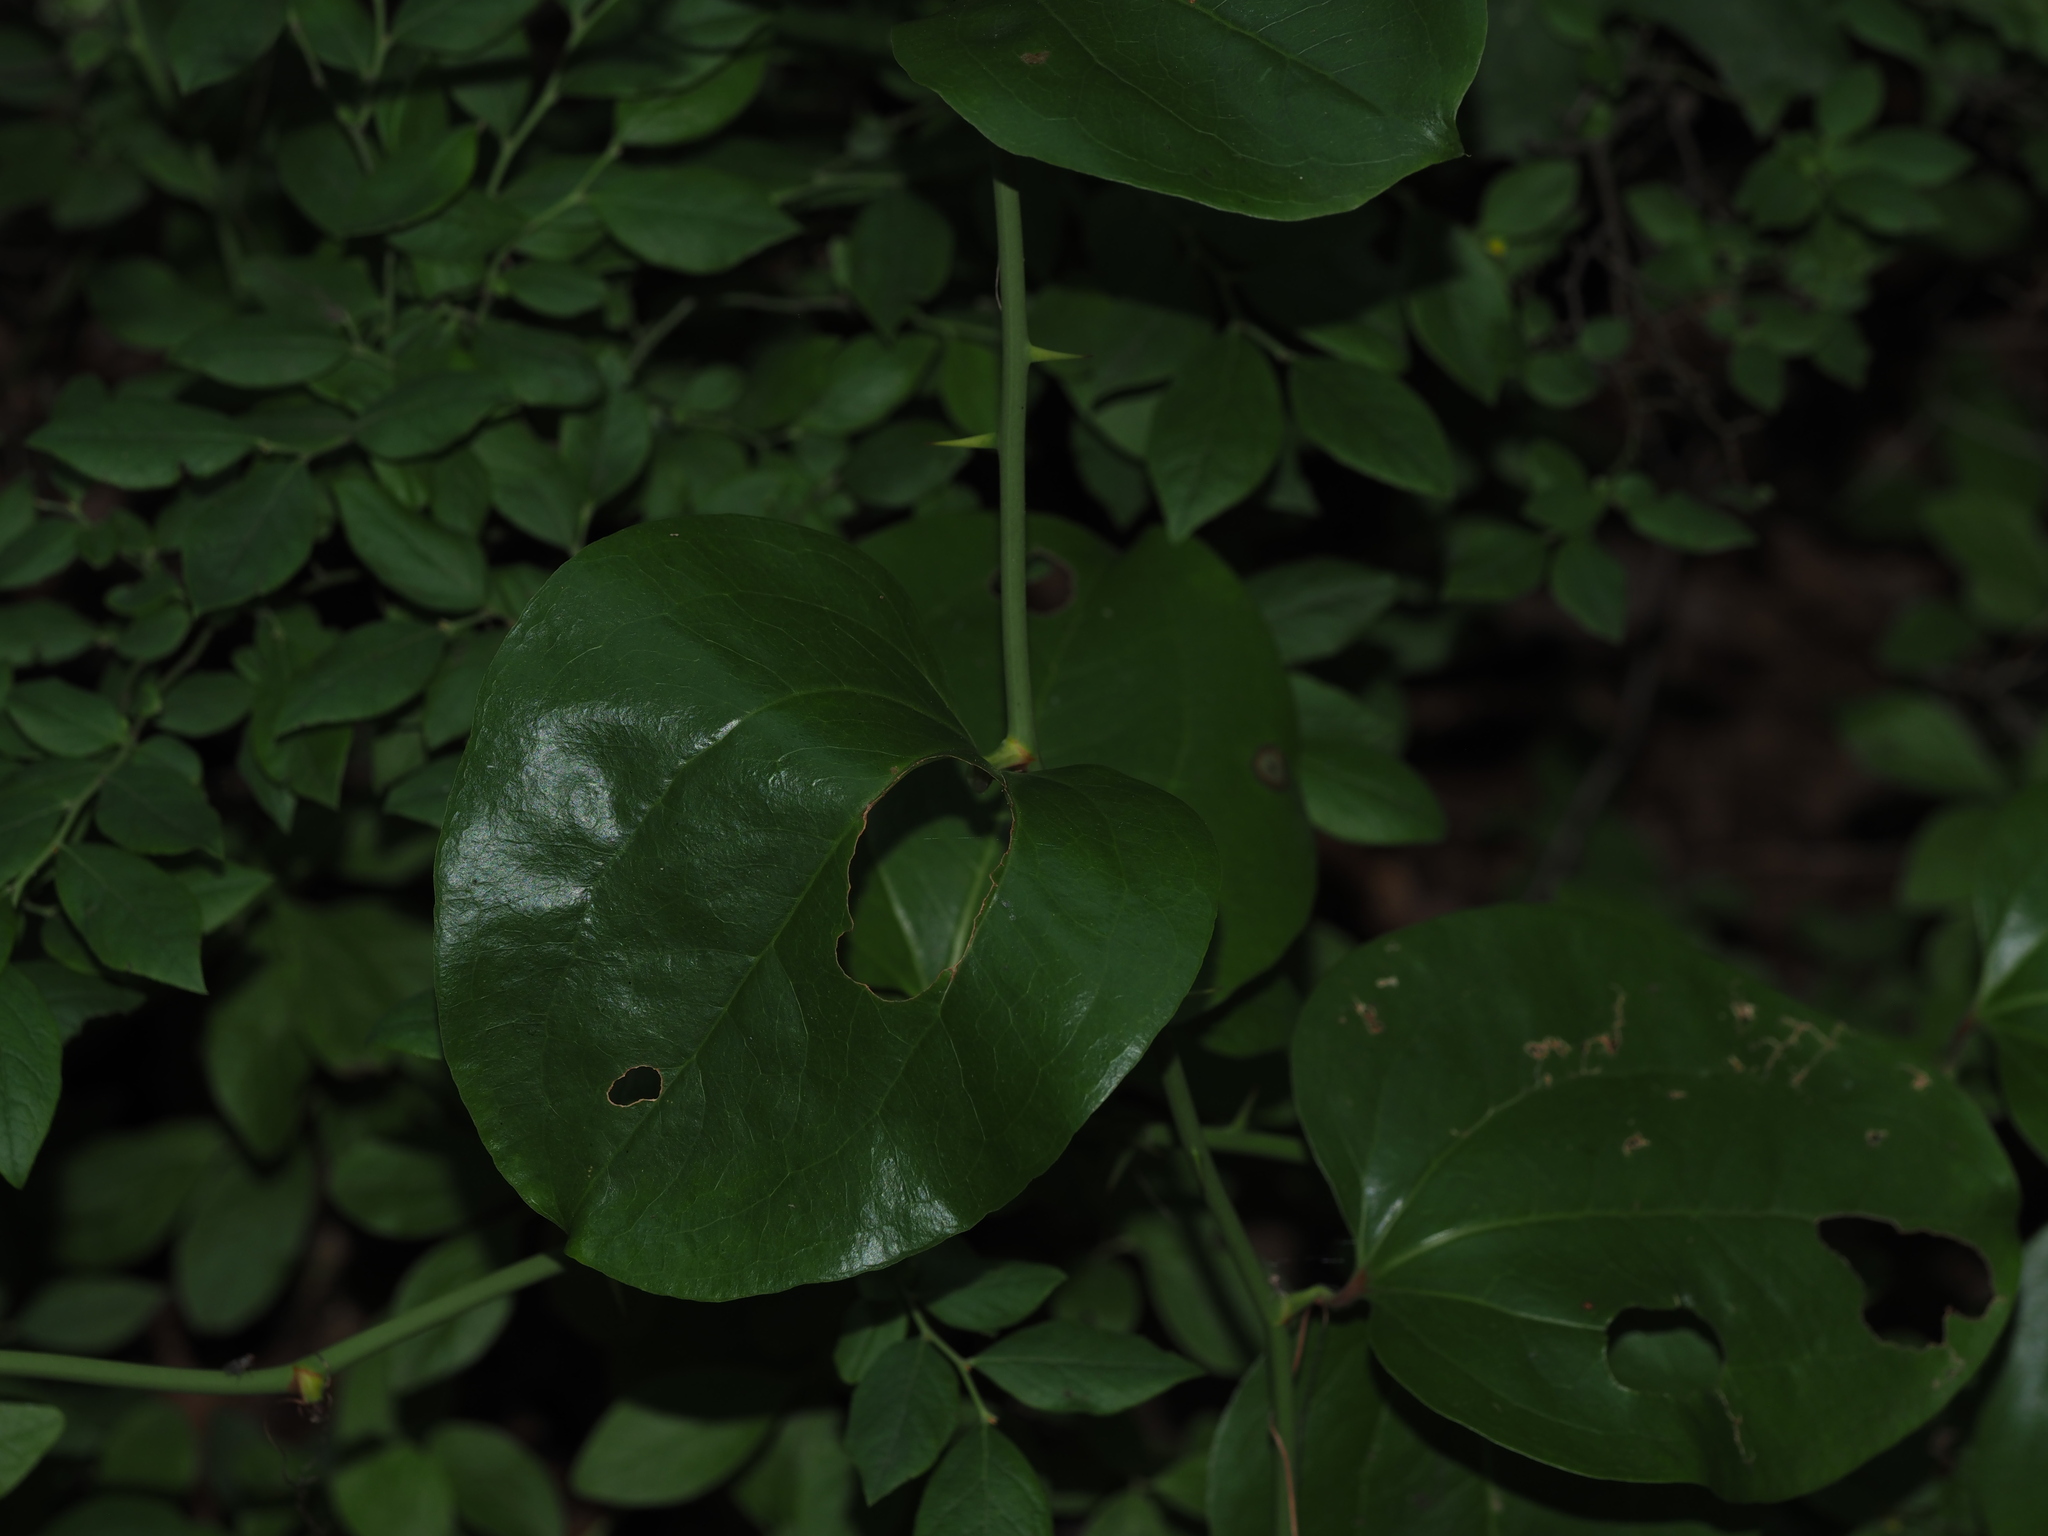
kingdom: Plantae
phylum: Tracheophyta
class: Liliopsida
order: Liliales
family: Smilacaceae
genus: Smilax
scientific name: Smilax rotundifolia
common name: Bullbriar
